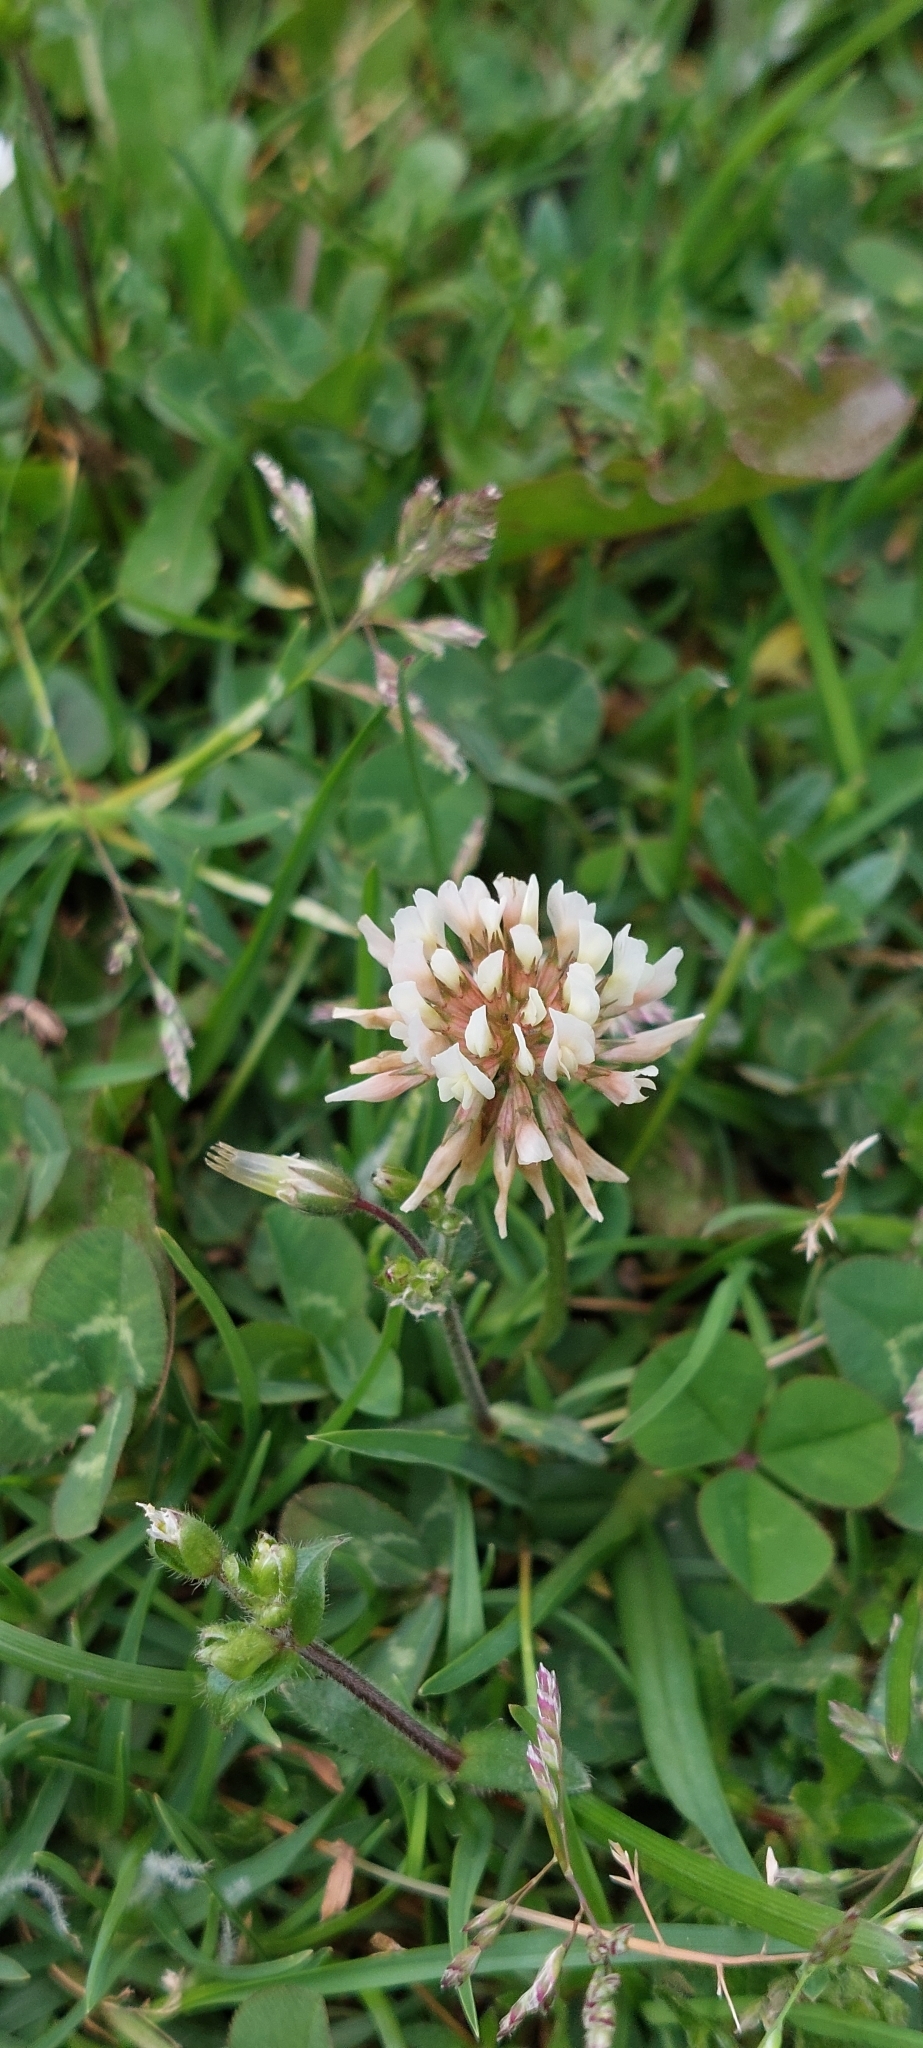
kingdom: Plantae
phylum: Tracheophyta
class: Magnoliopsida
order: Fabales
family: Fabaceae
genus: Trifolium
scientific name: Trifolium repens
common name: White clover
